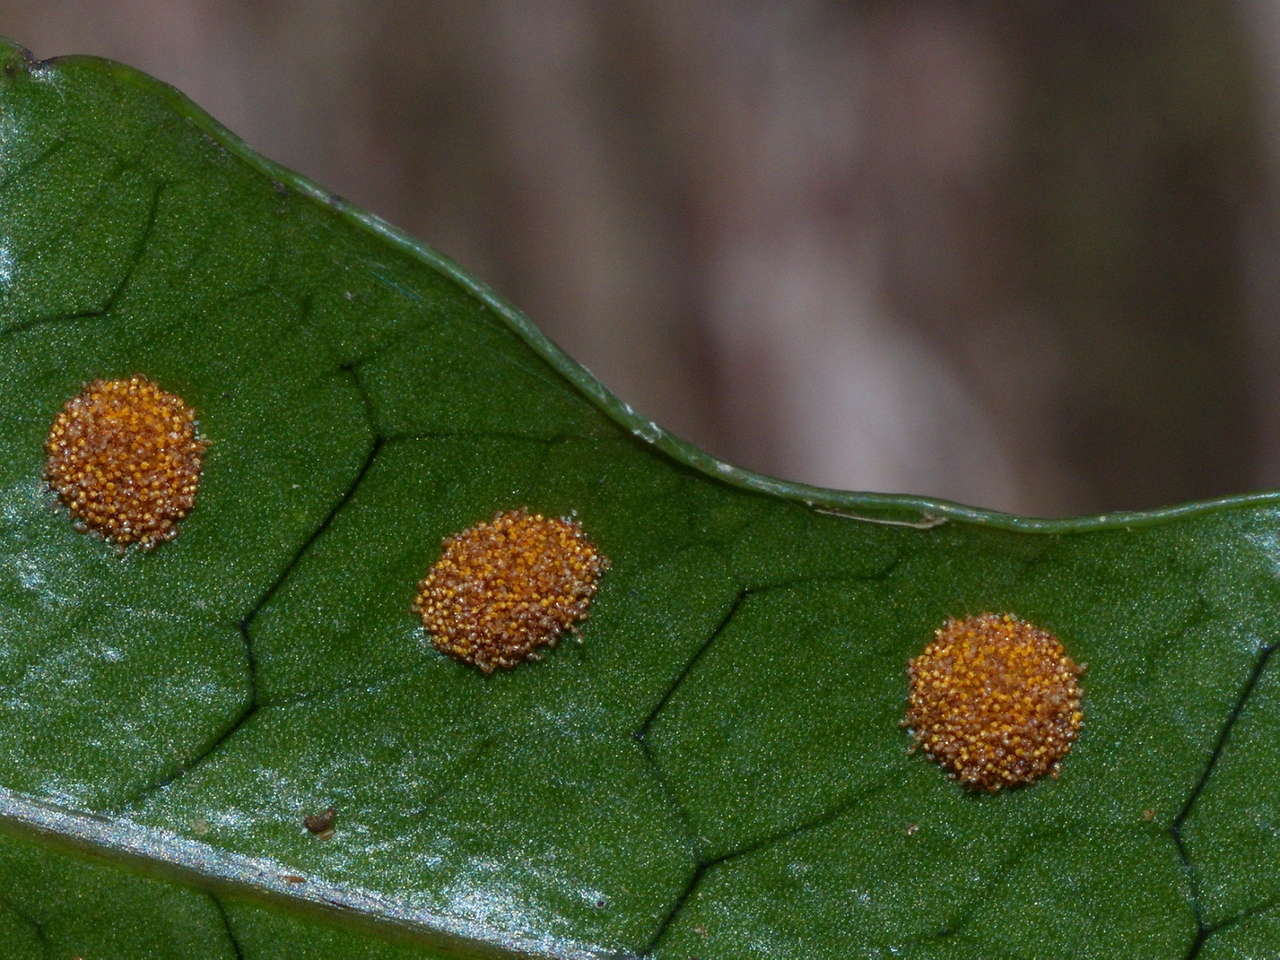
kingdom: Plantae
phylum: Tracheophyta
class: Polypodiopsida
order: Polypodiales
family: Polypodiaceae
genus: Lecanopteris
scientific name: Lecanopteris pustulata
